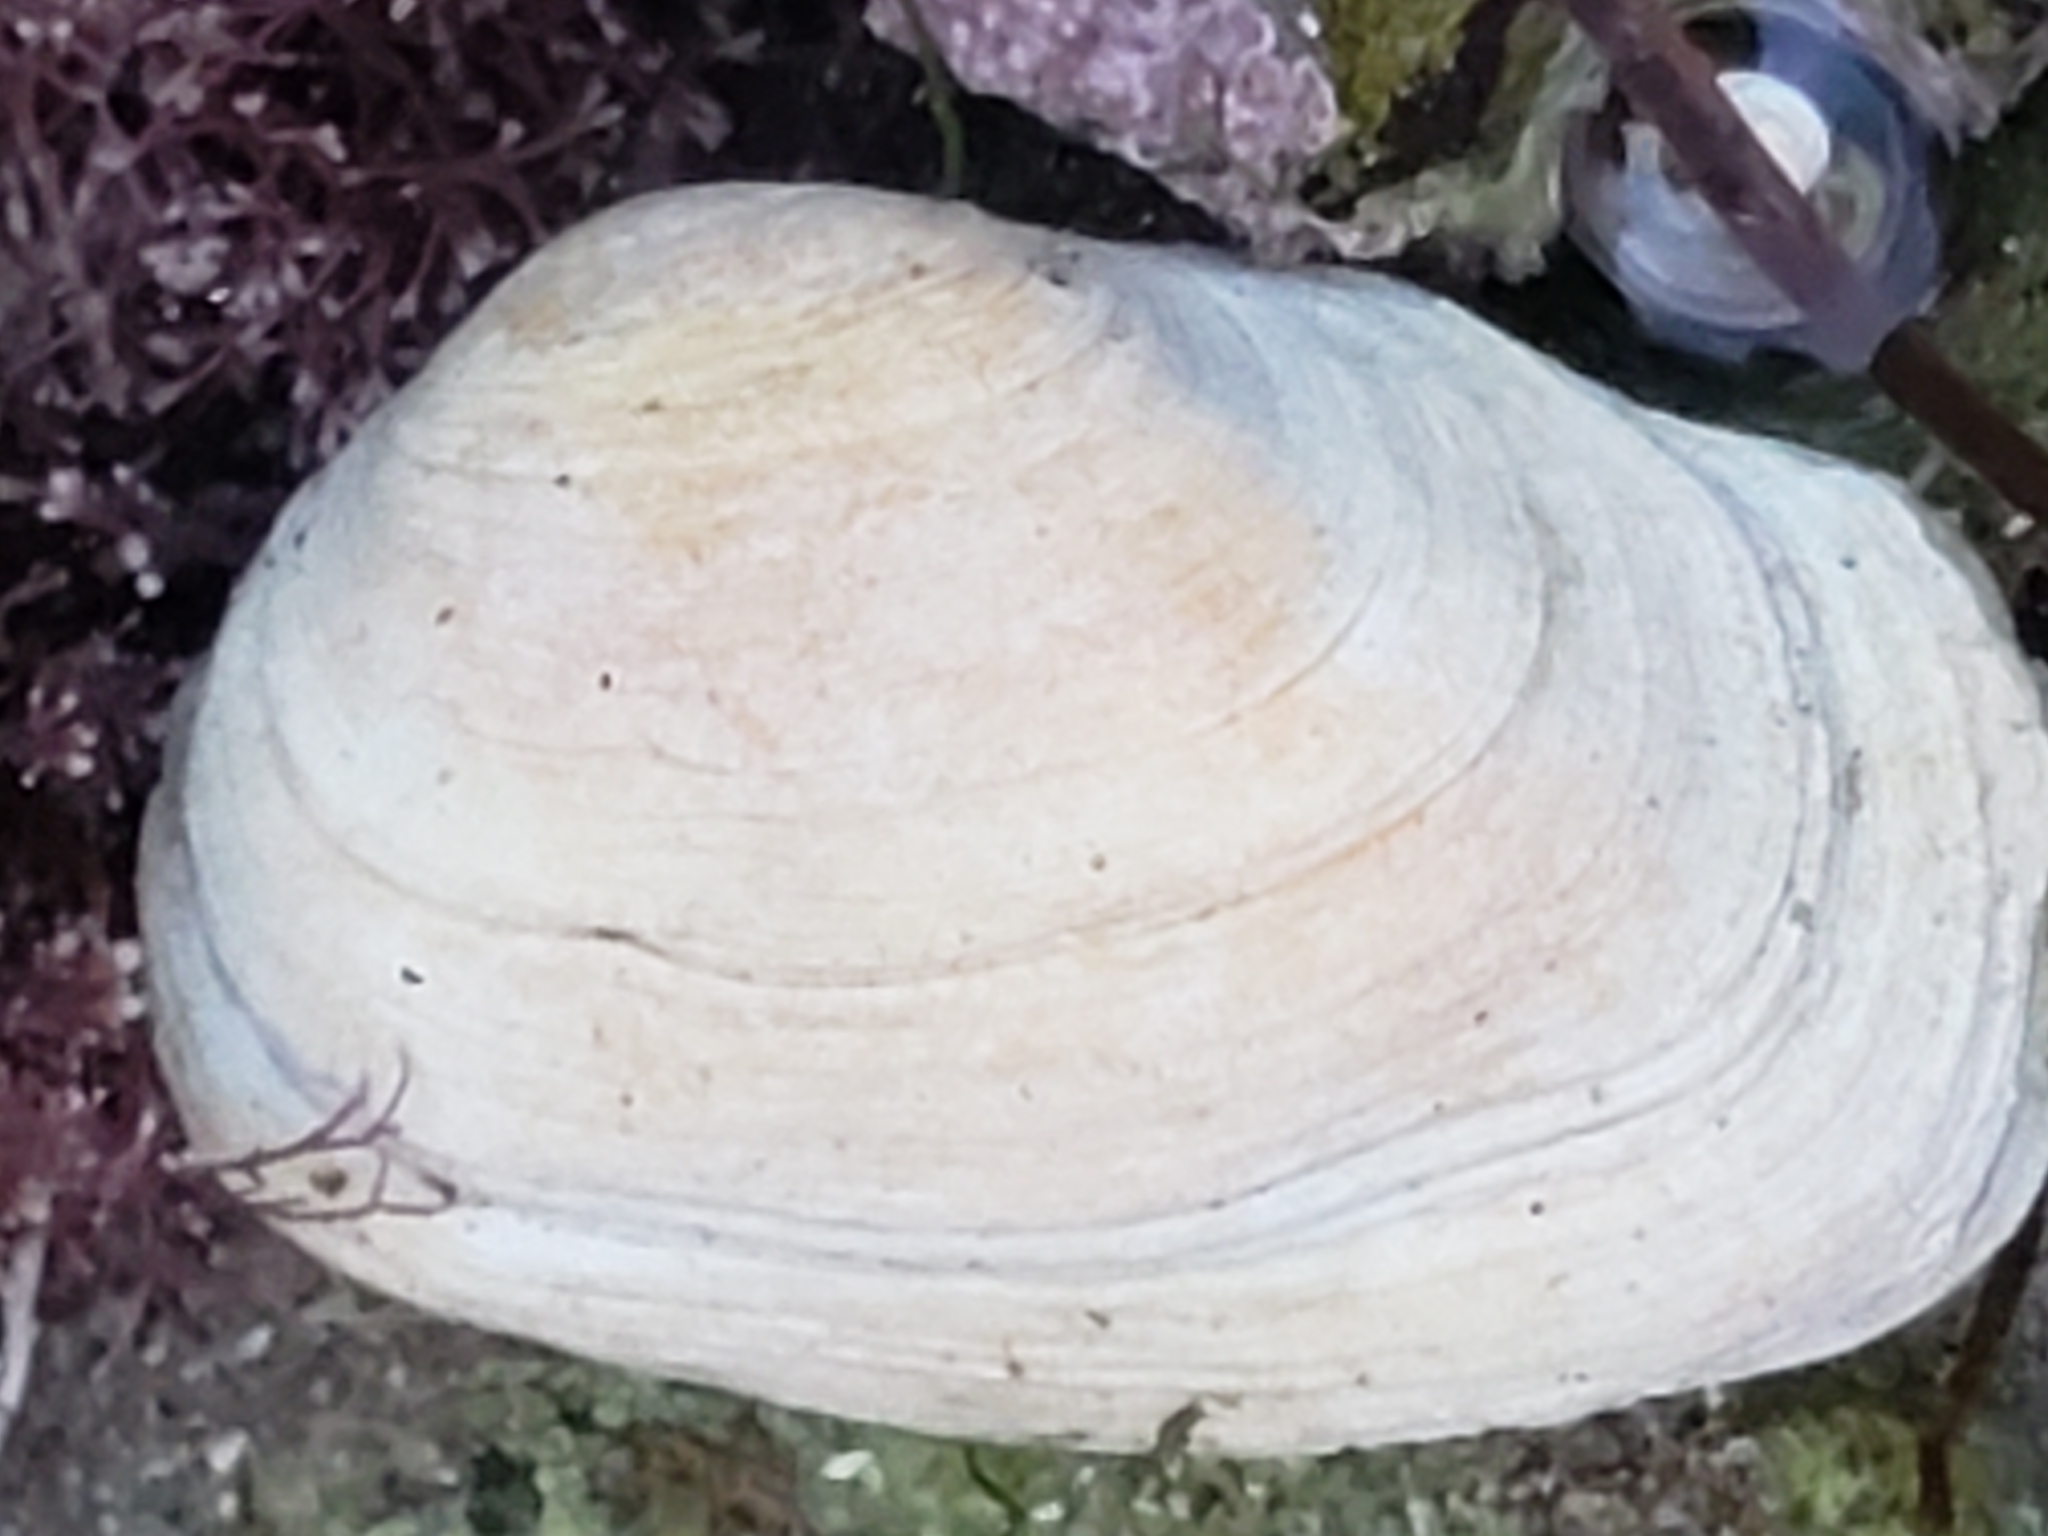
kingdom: Animalia
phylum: Mollusca
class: Bivalvia
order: Venerida
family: Veneridae
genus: Petricola
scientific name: Petricola carditoides
